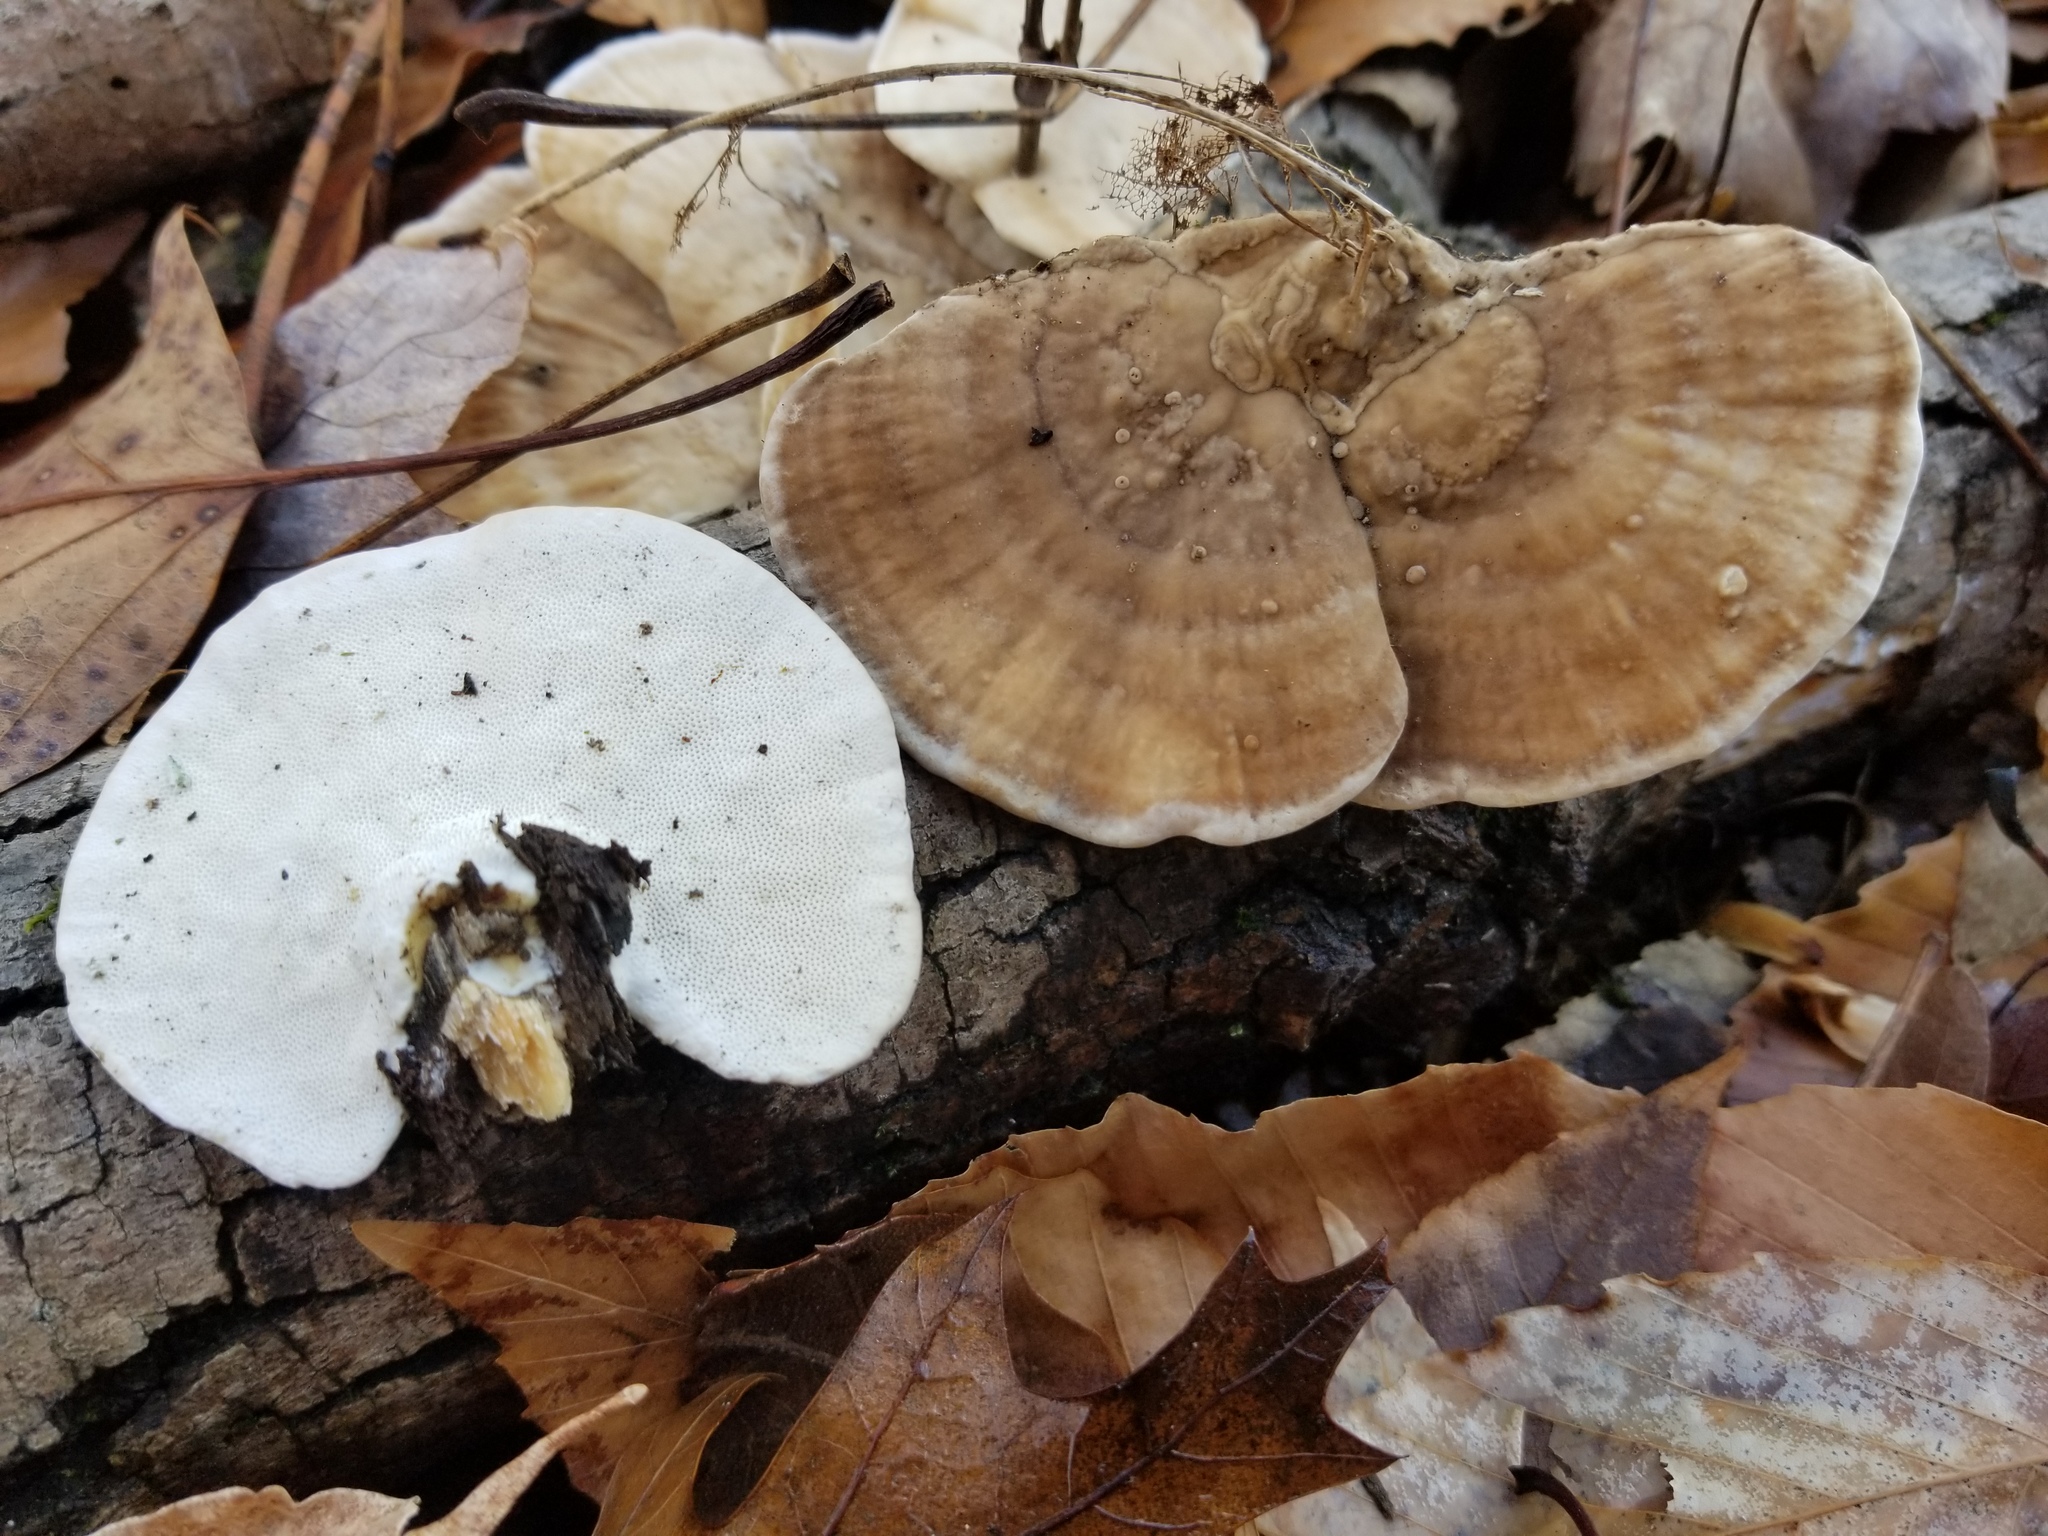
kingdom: Fungi
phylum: Basidiomycota
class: Agaricomycetes
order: Polyporales
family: Polyporaceae
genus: Trametes
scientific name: Trametes lactinea
